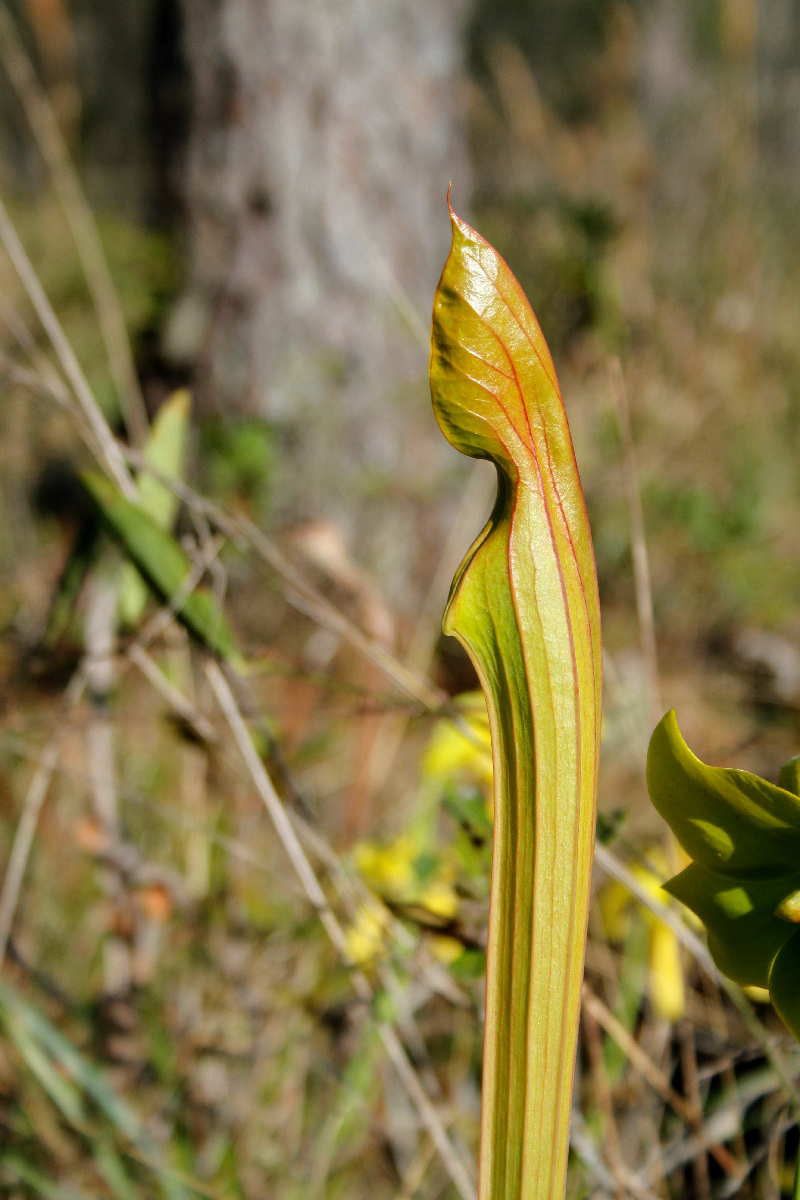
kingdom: Plantae
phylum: Tracheophyta
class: Magnoliopsida
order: Ericales
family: Sarraceniaceae
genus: Sarracenia
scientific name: Sarracenia flava
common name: Trumpets
